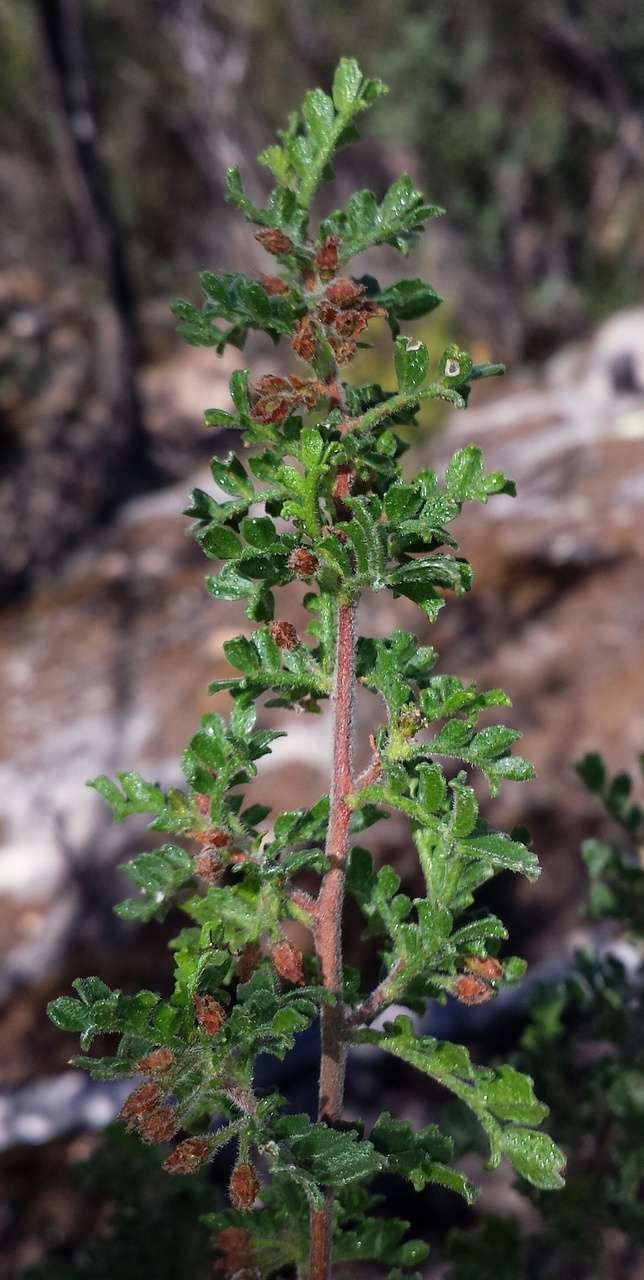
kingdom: Plantae
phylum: Tracheophyta
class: Magnoliopsida
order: Sapindales
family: Sapindaceae
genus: Dodonaea
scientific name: Dodonaea boroniifolia
